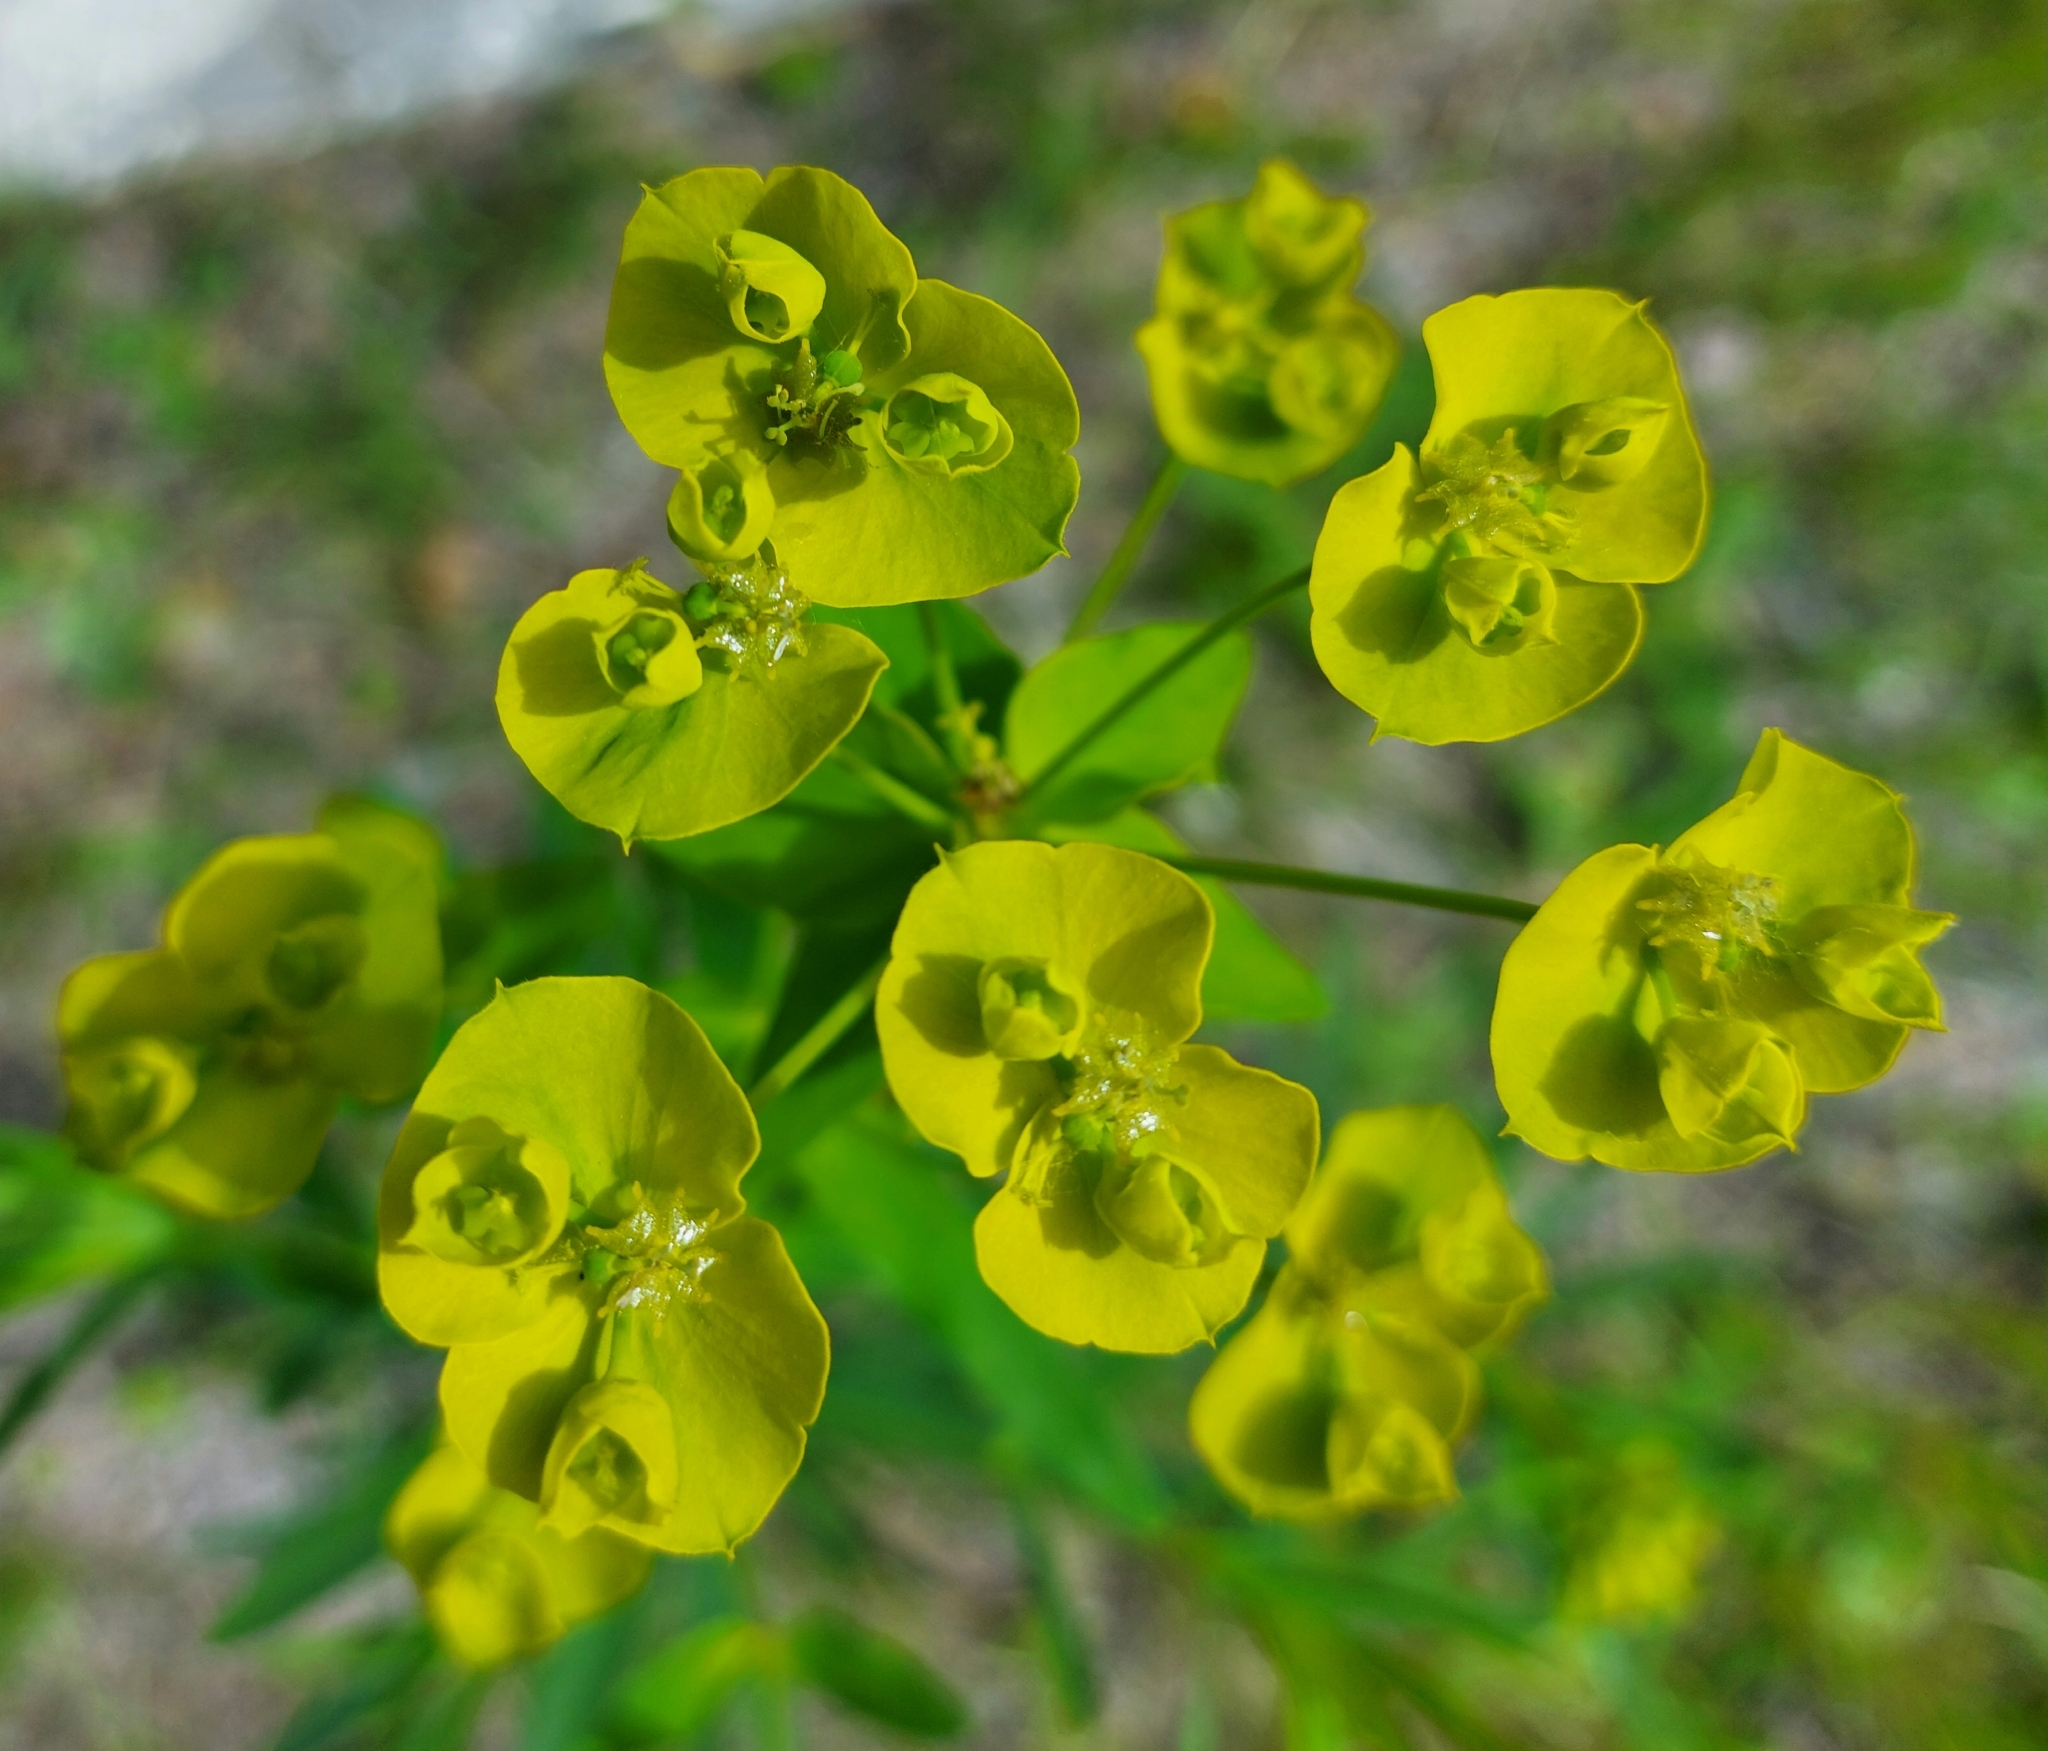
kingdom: Plantae
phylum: Tracheophyta
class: Magnoliopsida
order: Malpighiales
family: Euphorbiaceae
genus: Euphorbia
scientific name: Euphorbia virgata
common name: Leafy spurge
